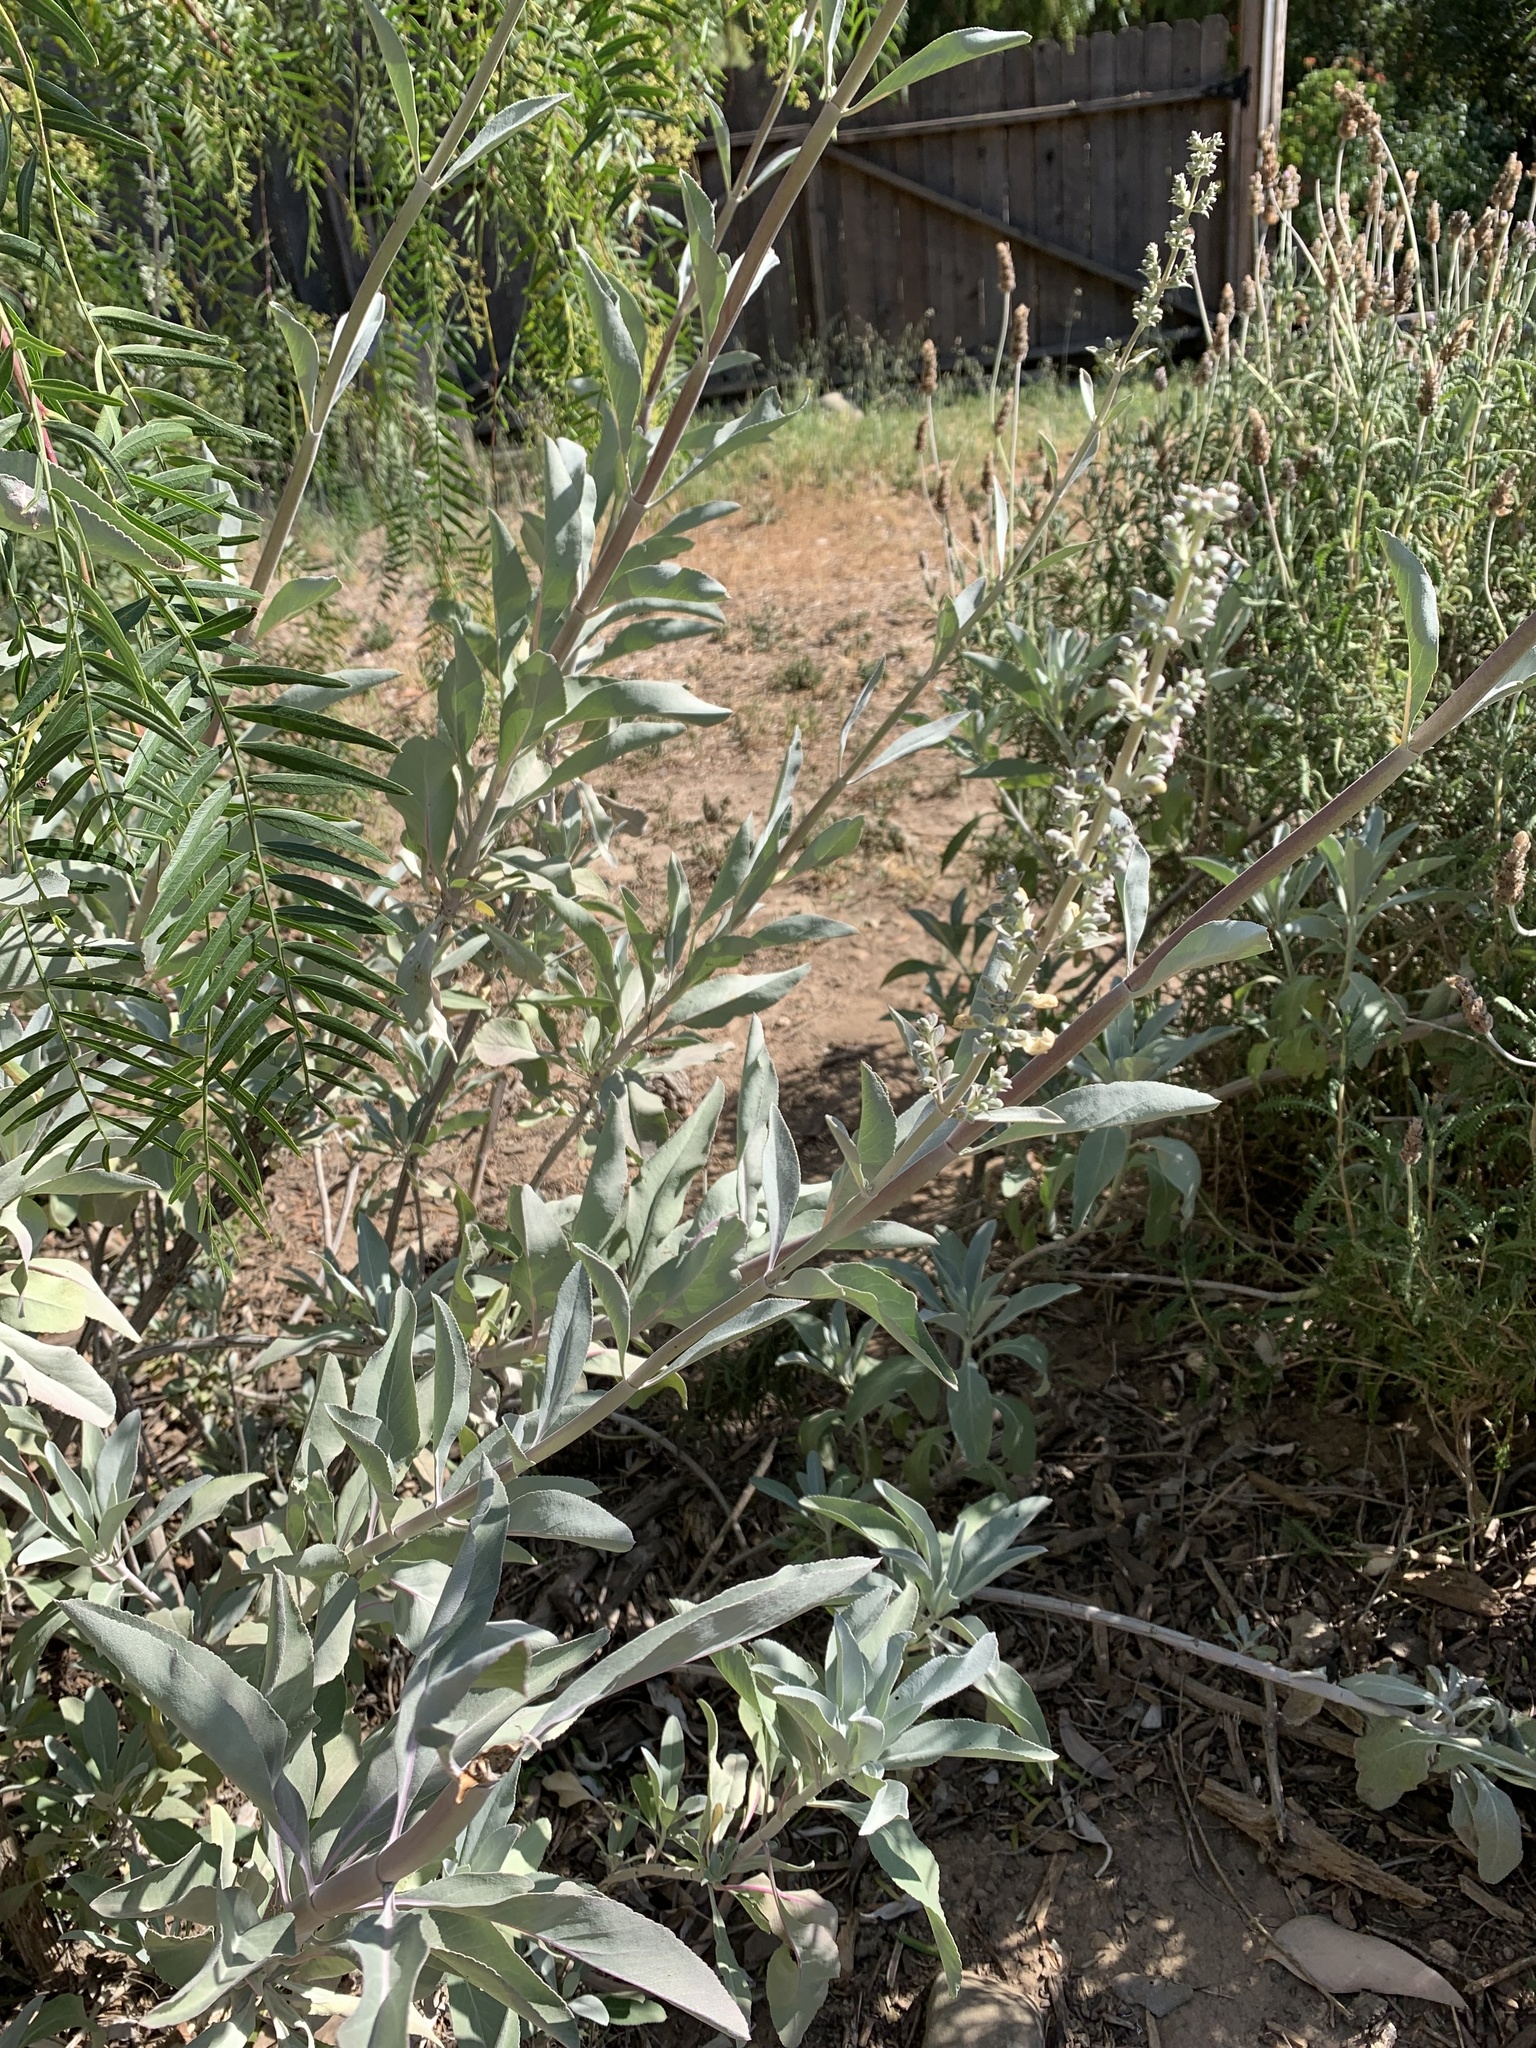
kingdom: Plantae
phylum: Tracheophyta
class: Magnoliopsida
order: Lamiales
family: Lamiaceae
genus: Salvia
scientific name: Salvia apiana
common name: White sage
